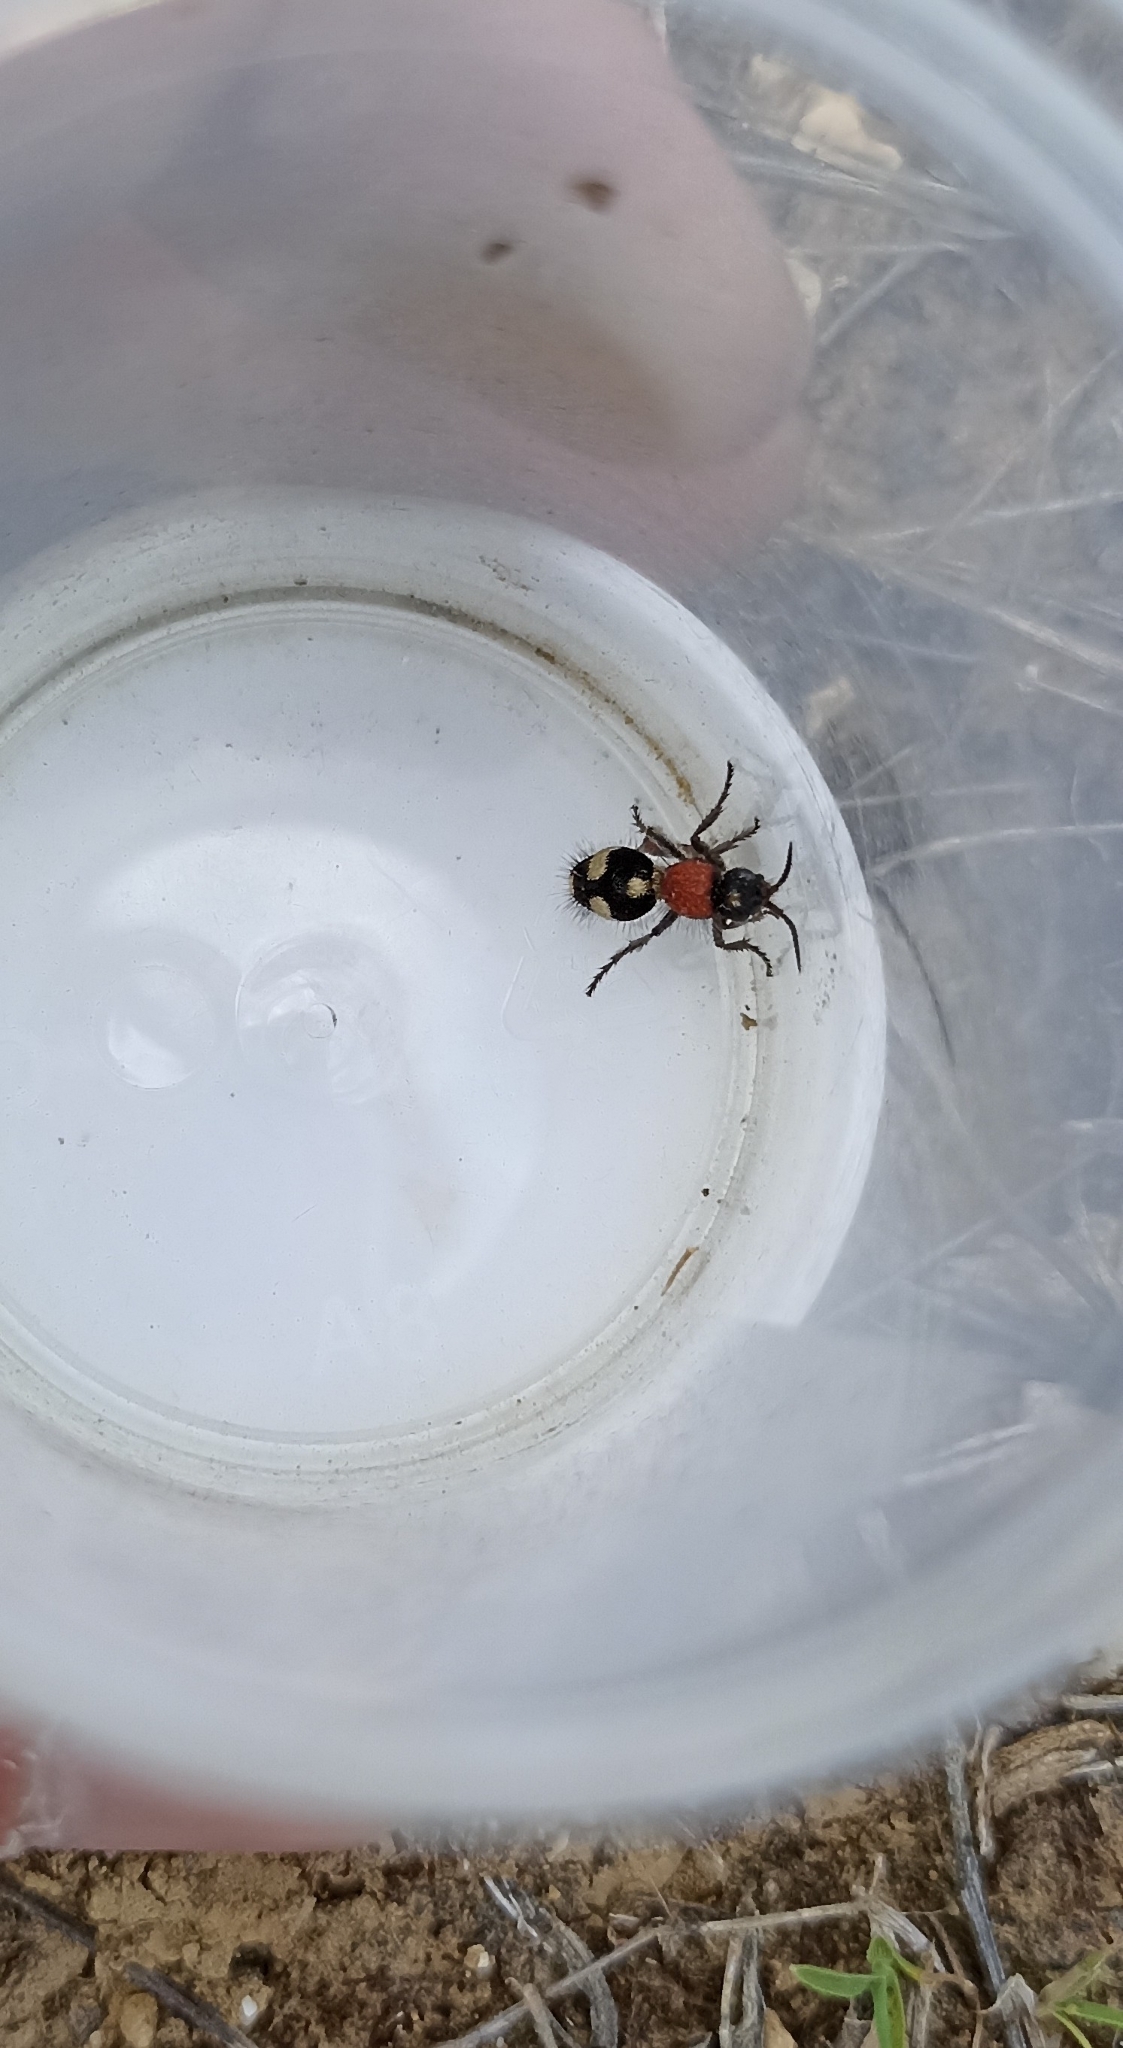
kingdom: Animalia
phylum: Arthropoda
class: Insecta
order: Hymenoptera
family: Mutillidae
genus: Dasylabris
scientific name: Dasylabris maura
